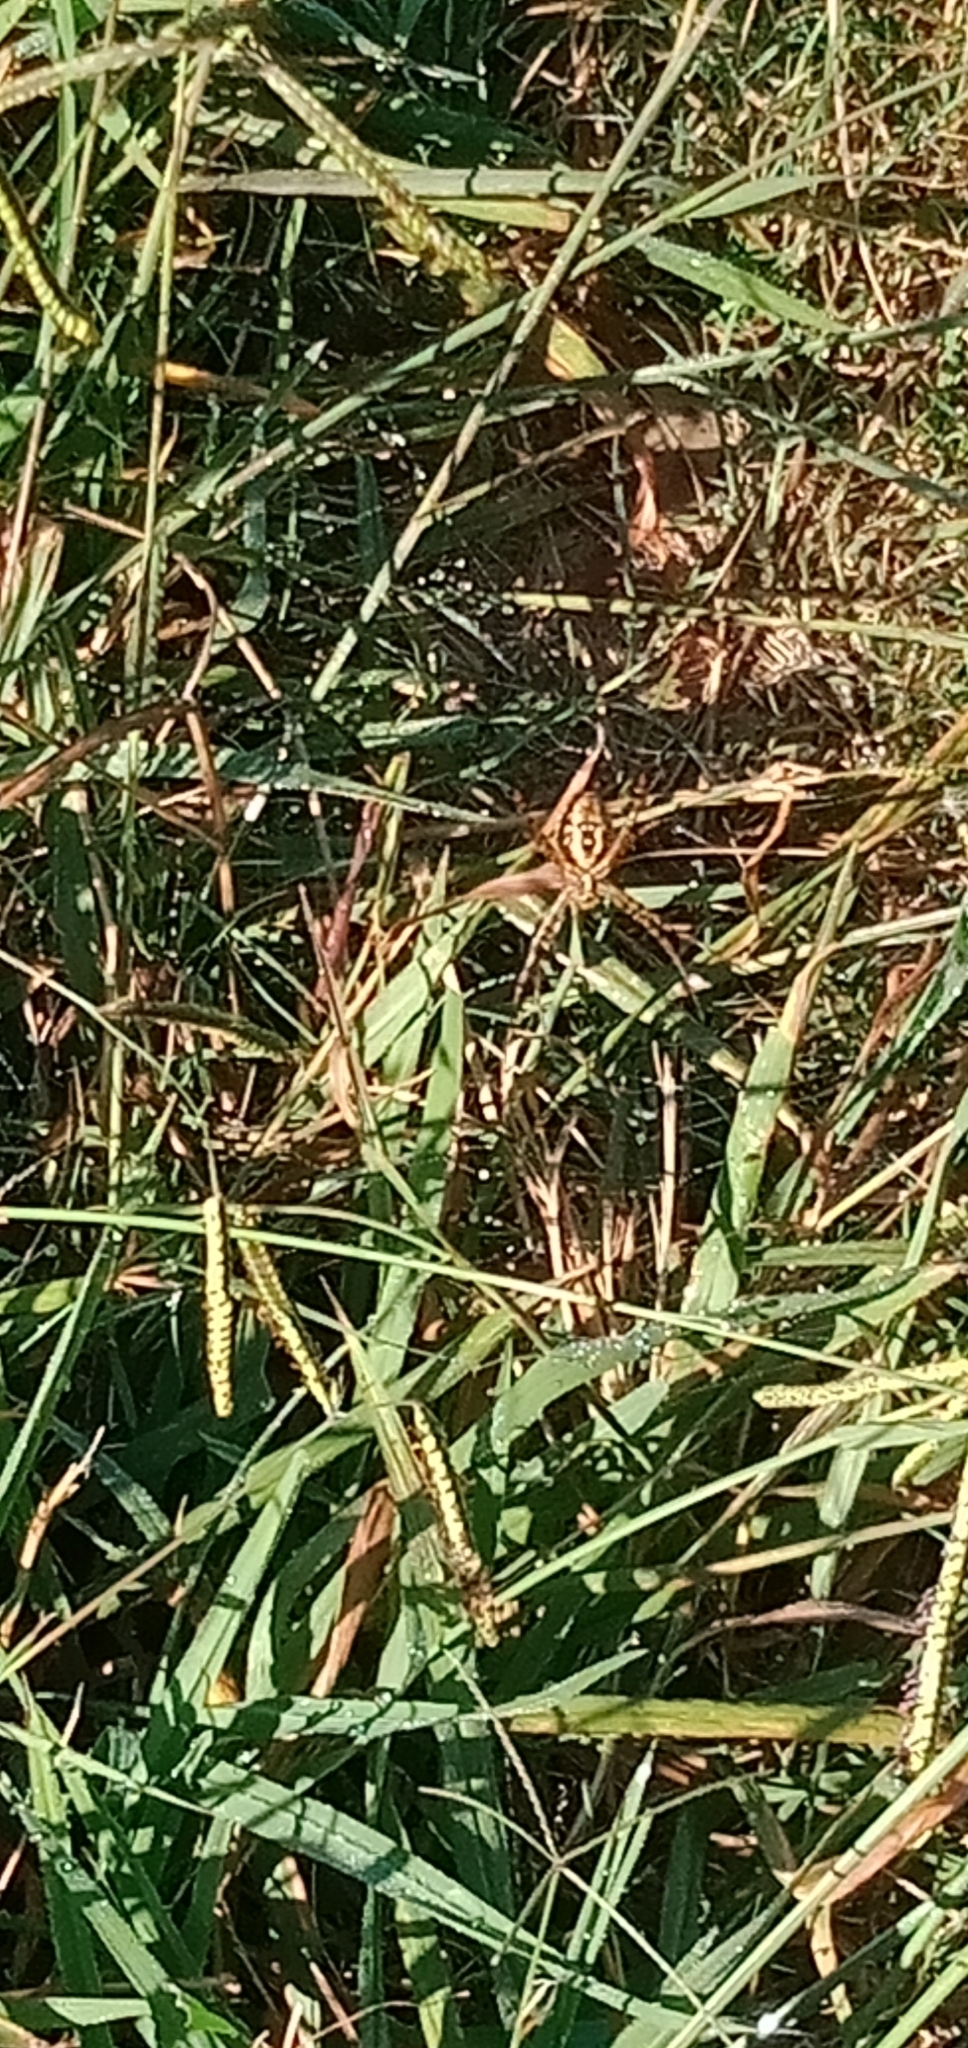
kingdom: Animalia
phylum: Arthropoda
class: Arachnida
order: Araneae
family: Araneidae
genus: Argiope
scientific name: Argiope trifasciata
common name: Banded garden spider
